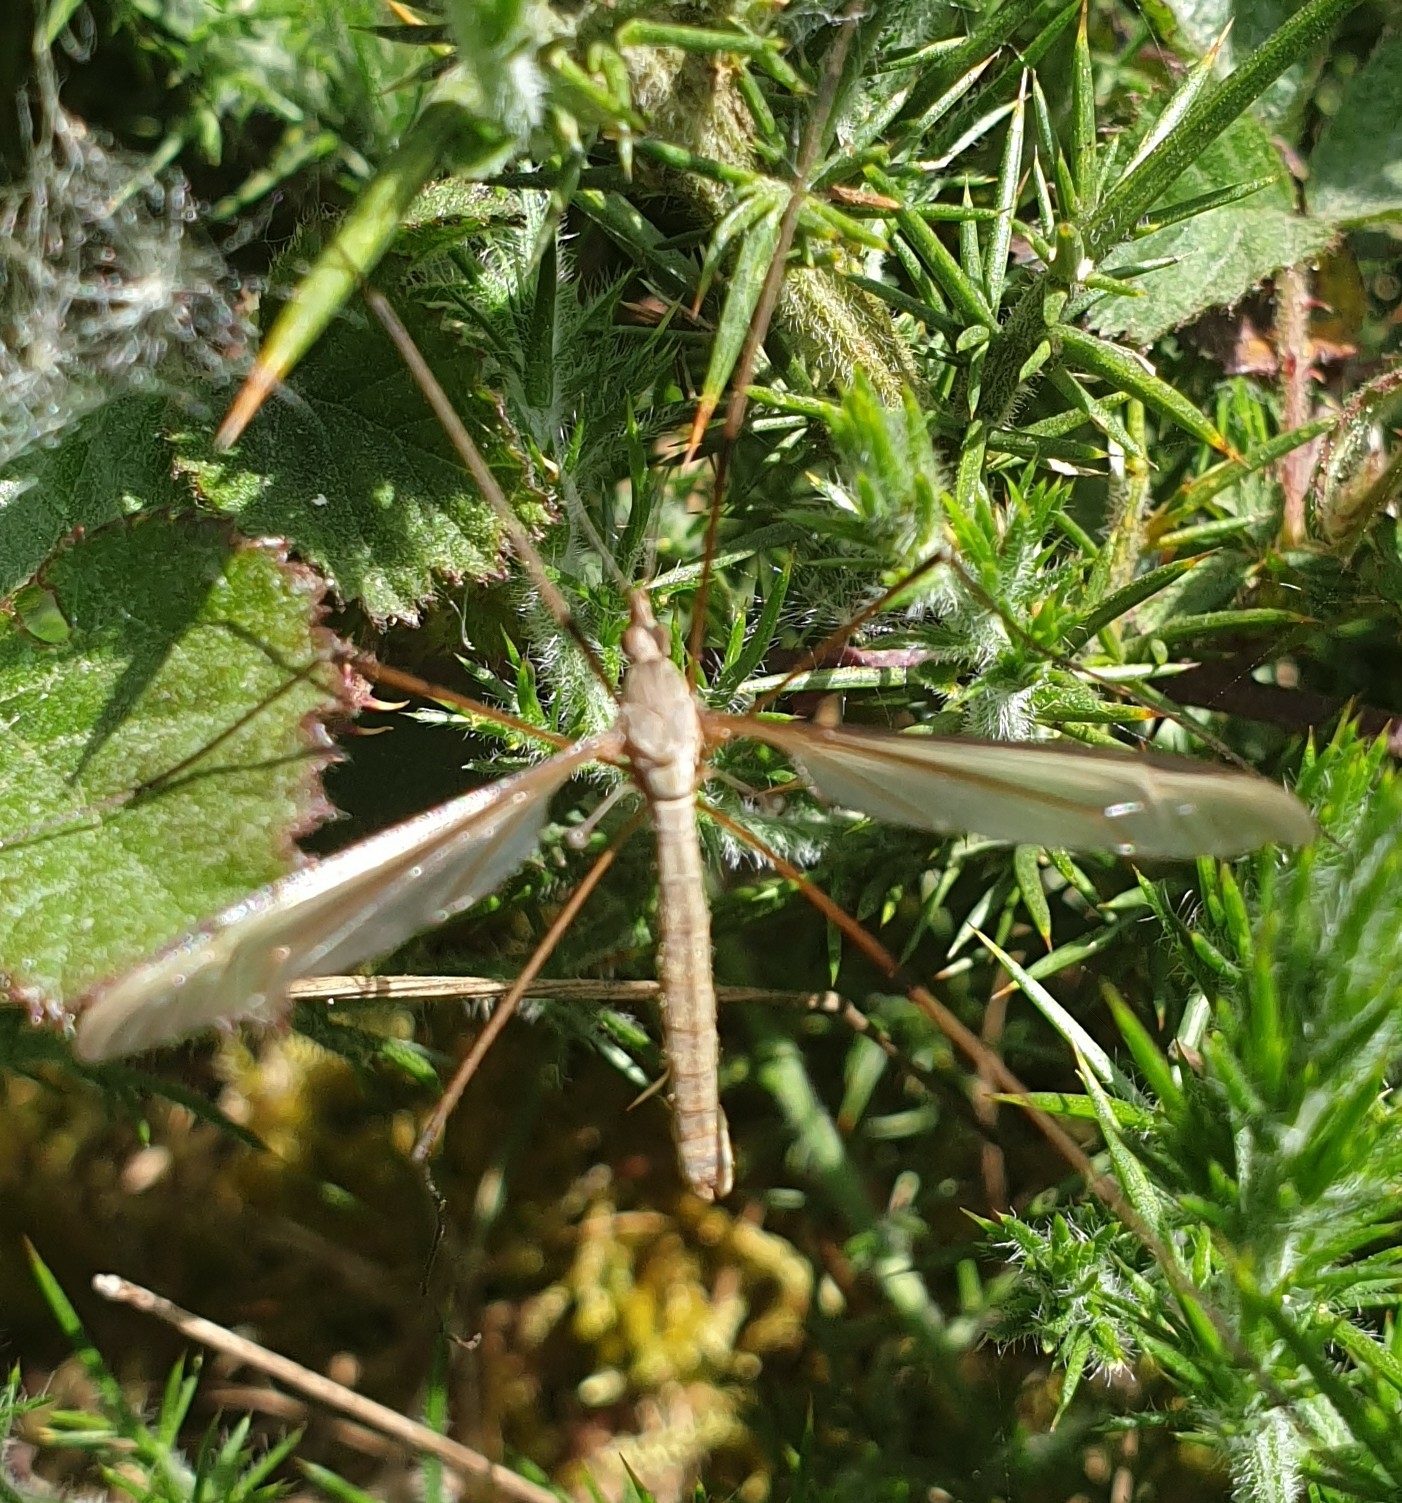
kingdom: Animalia
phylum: Arthropoda
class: Insecta
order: Diptera
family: Tipulidae
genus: Tipula
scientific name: Tipula paludosa
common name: European cranefly
